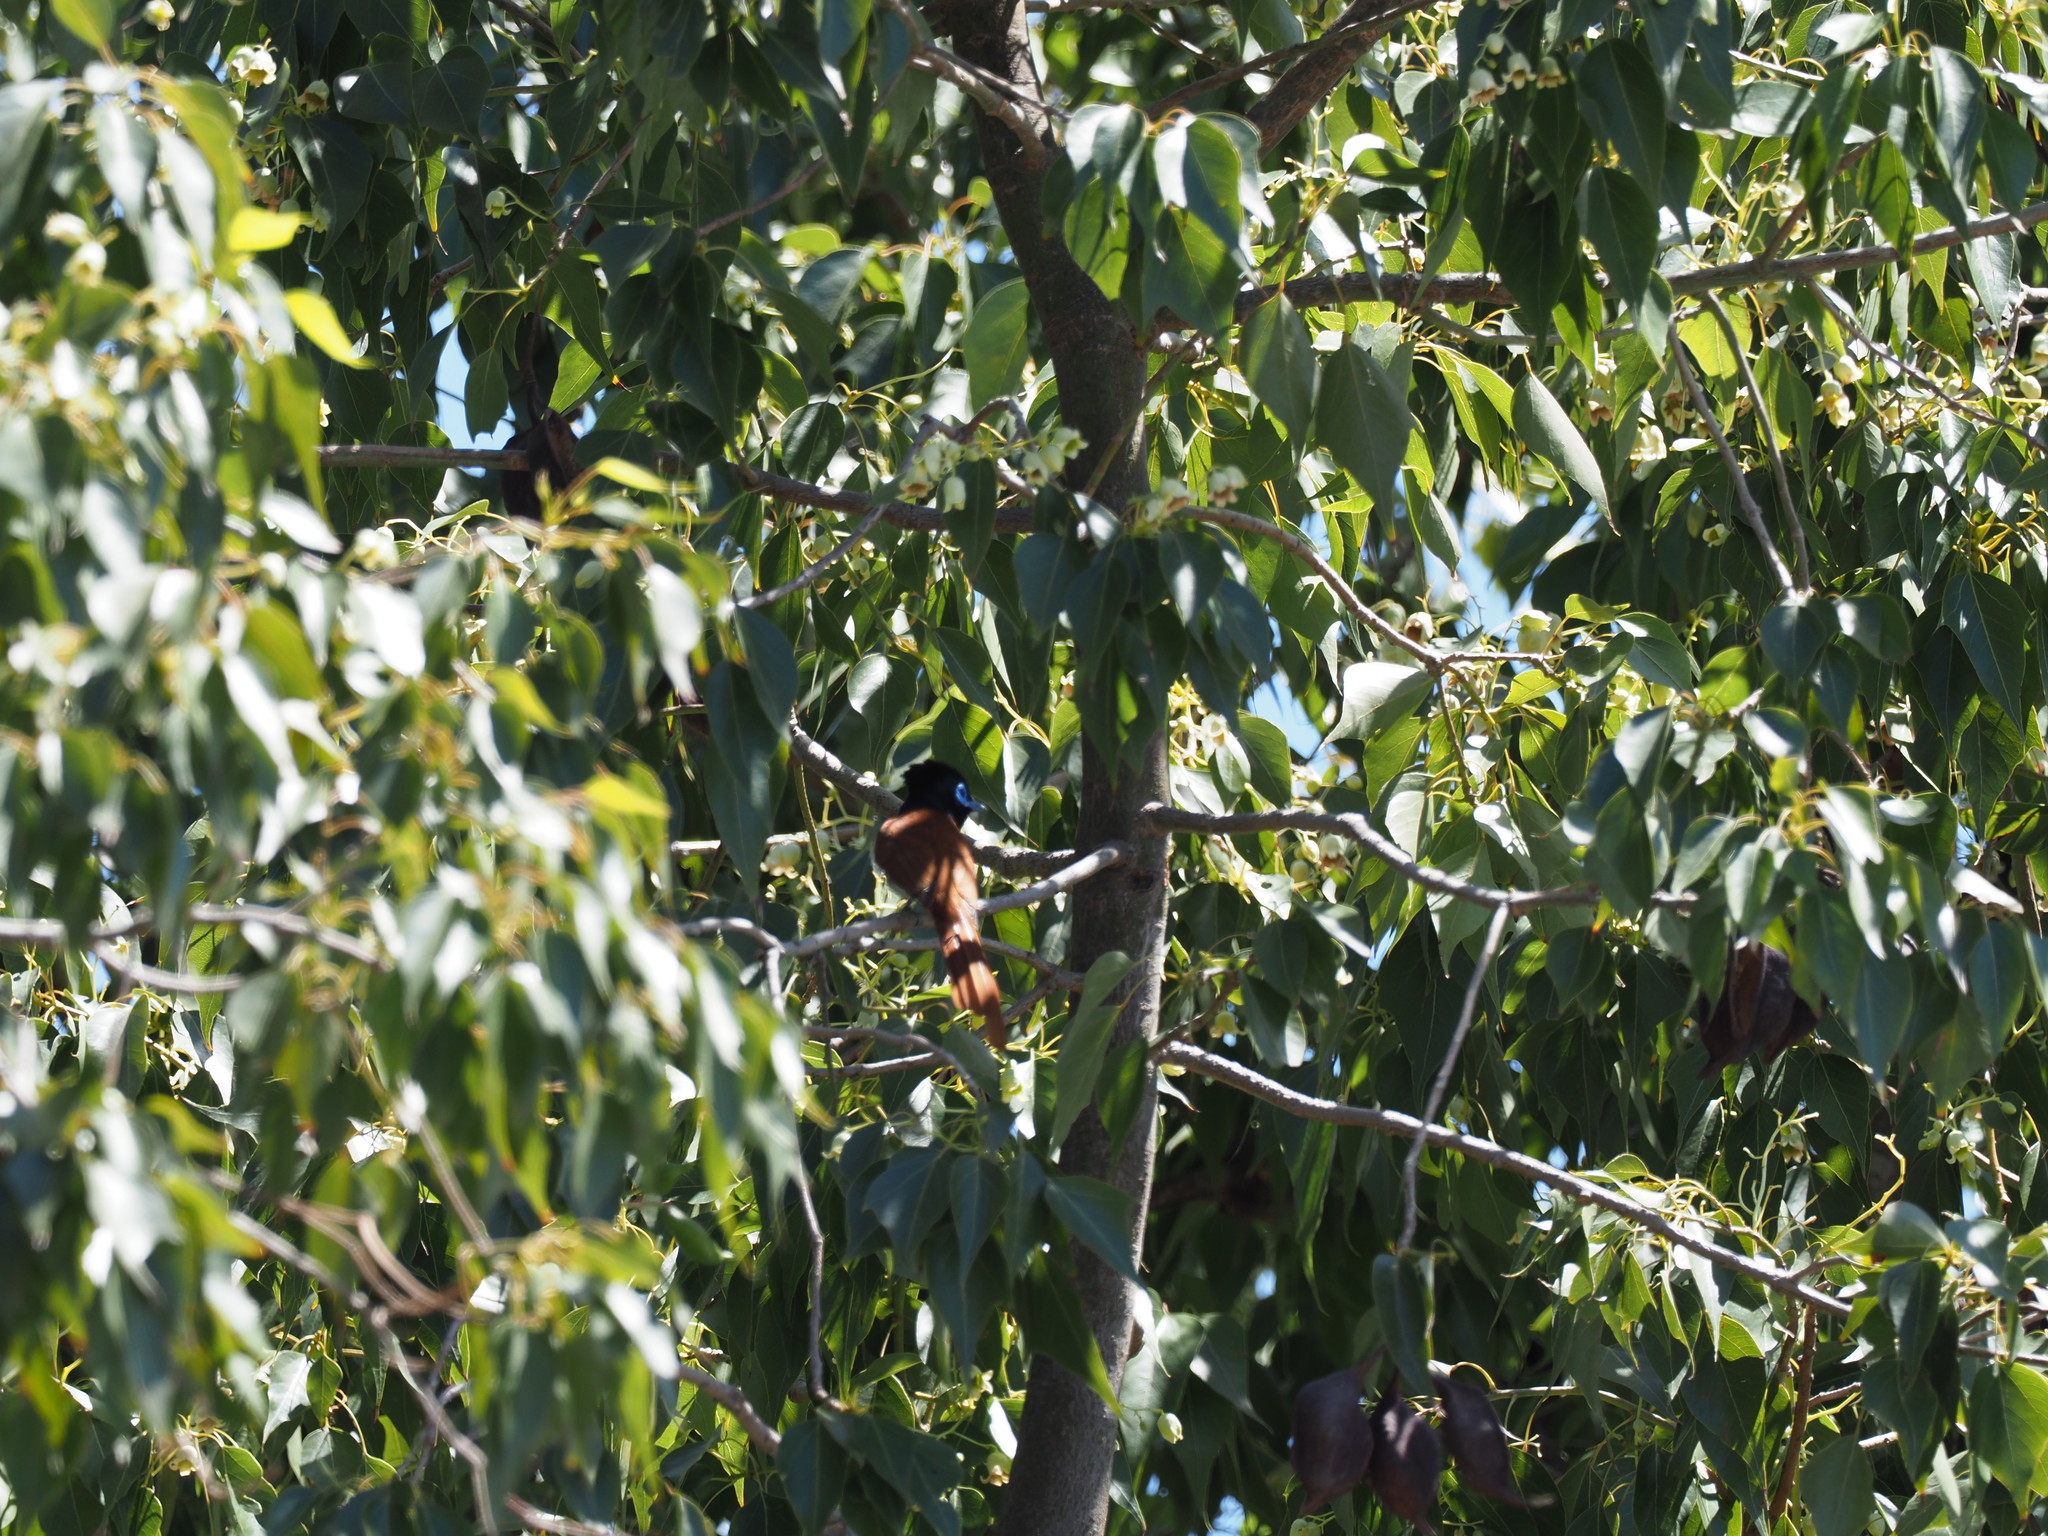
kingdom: Animalia
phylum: Chordata
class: Aves
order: Passeriformes
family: Monarchidae
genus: Terpsiphone
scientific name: Terpsiphone viridis
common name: African paradise flycatcher
